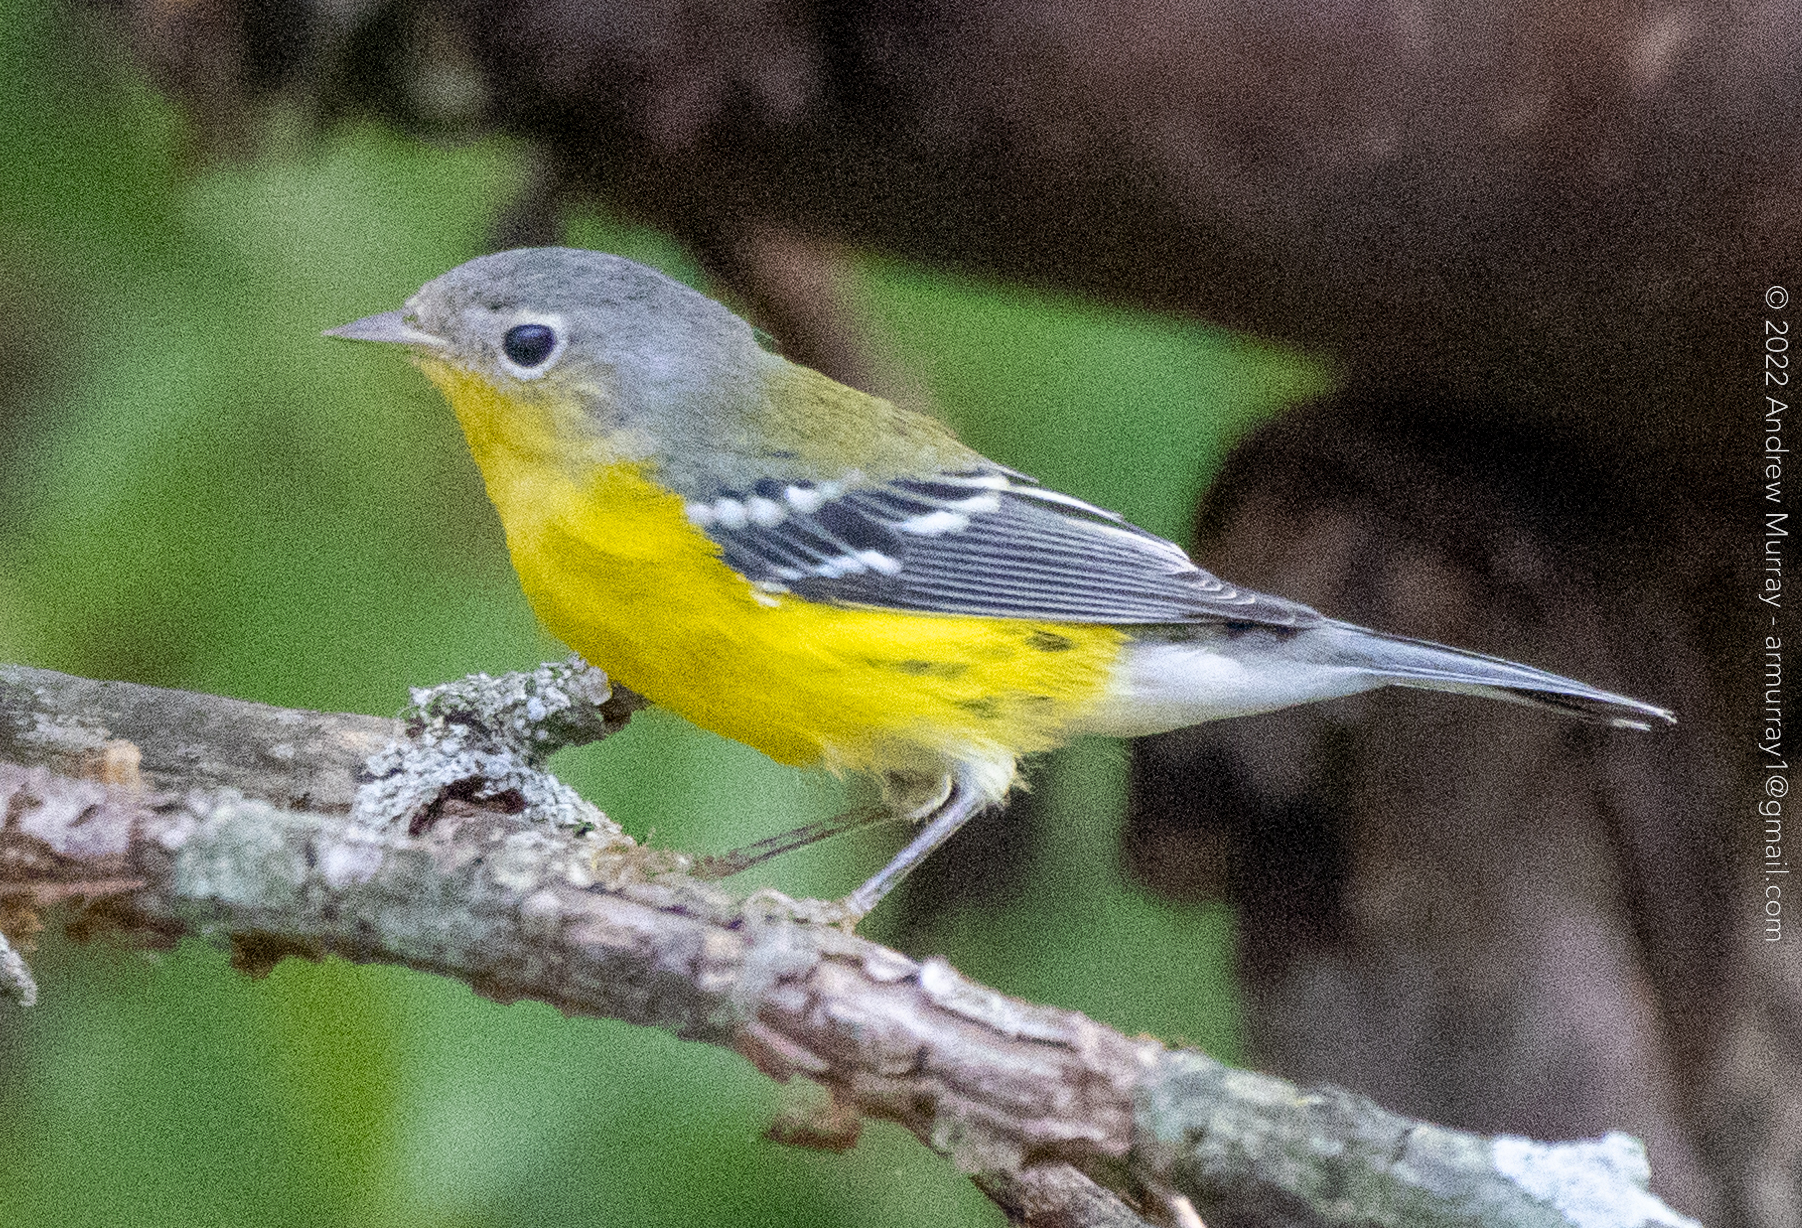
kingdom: Animalia
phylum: Chordata
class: Aves
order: Passeriformes
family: Parulidae
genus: Setophaga
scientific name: Setophaga magnolia
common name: Magnolia warbler
